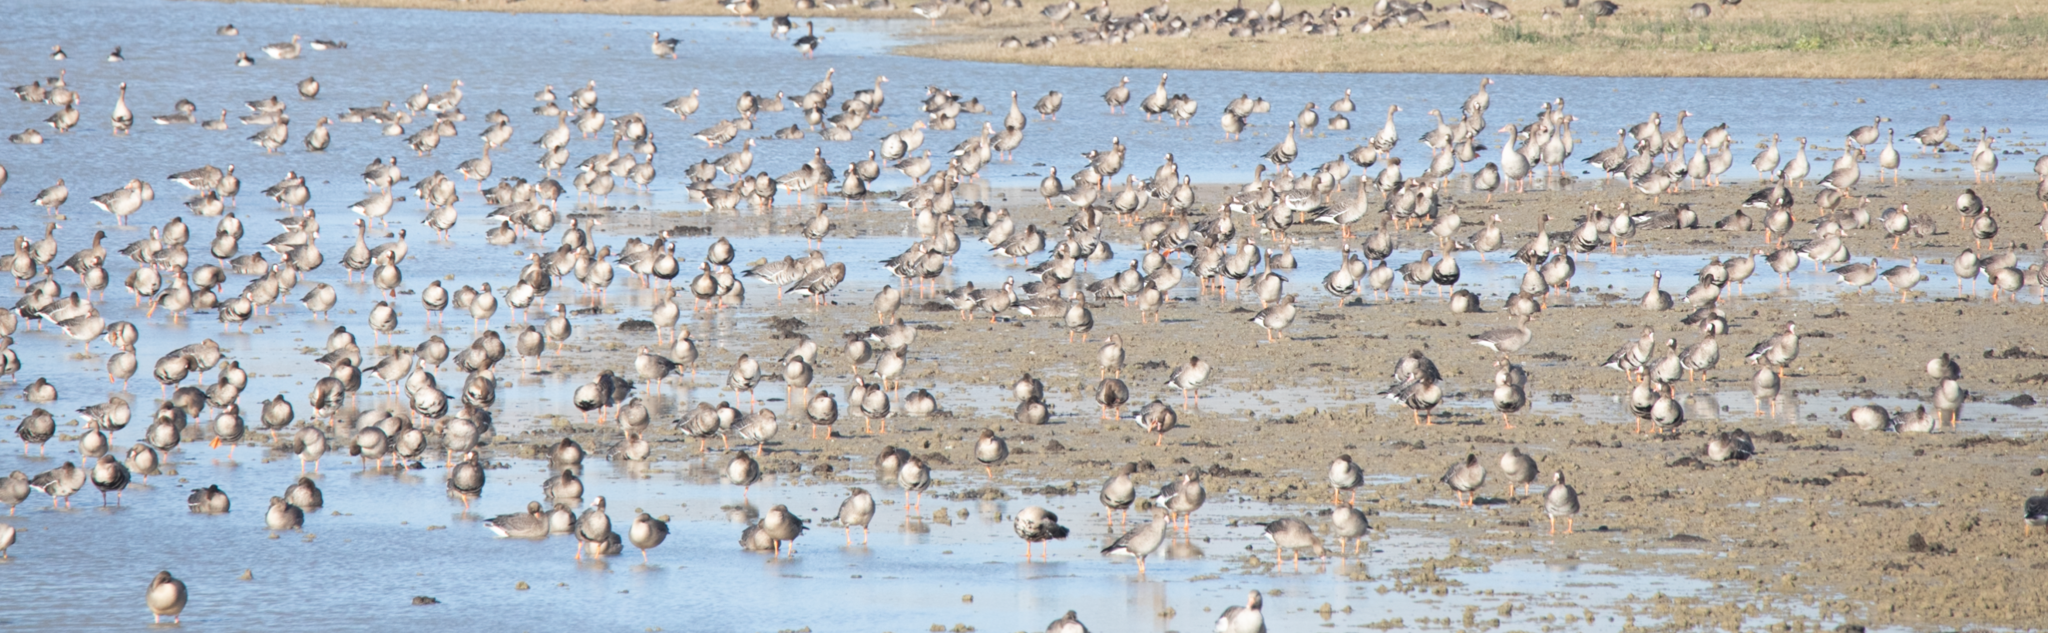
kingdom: Animalia
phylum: Chordata
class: Aves
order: Anseriformes
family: Anatidae
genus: Anser
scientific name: Anser albifrons
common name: Greater white-fronted goose
